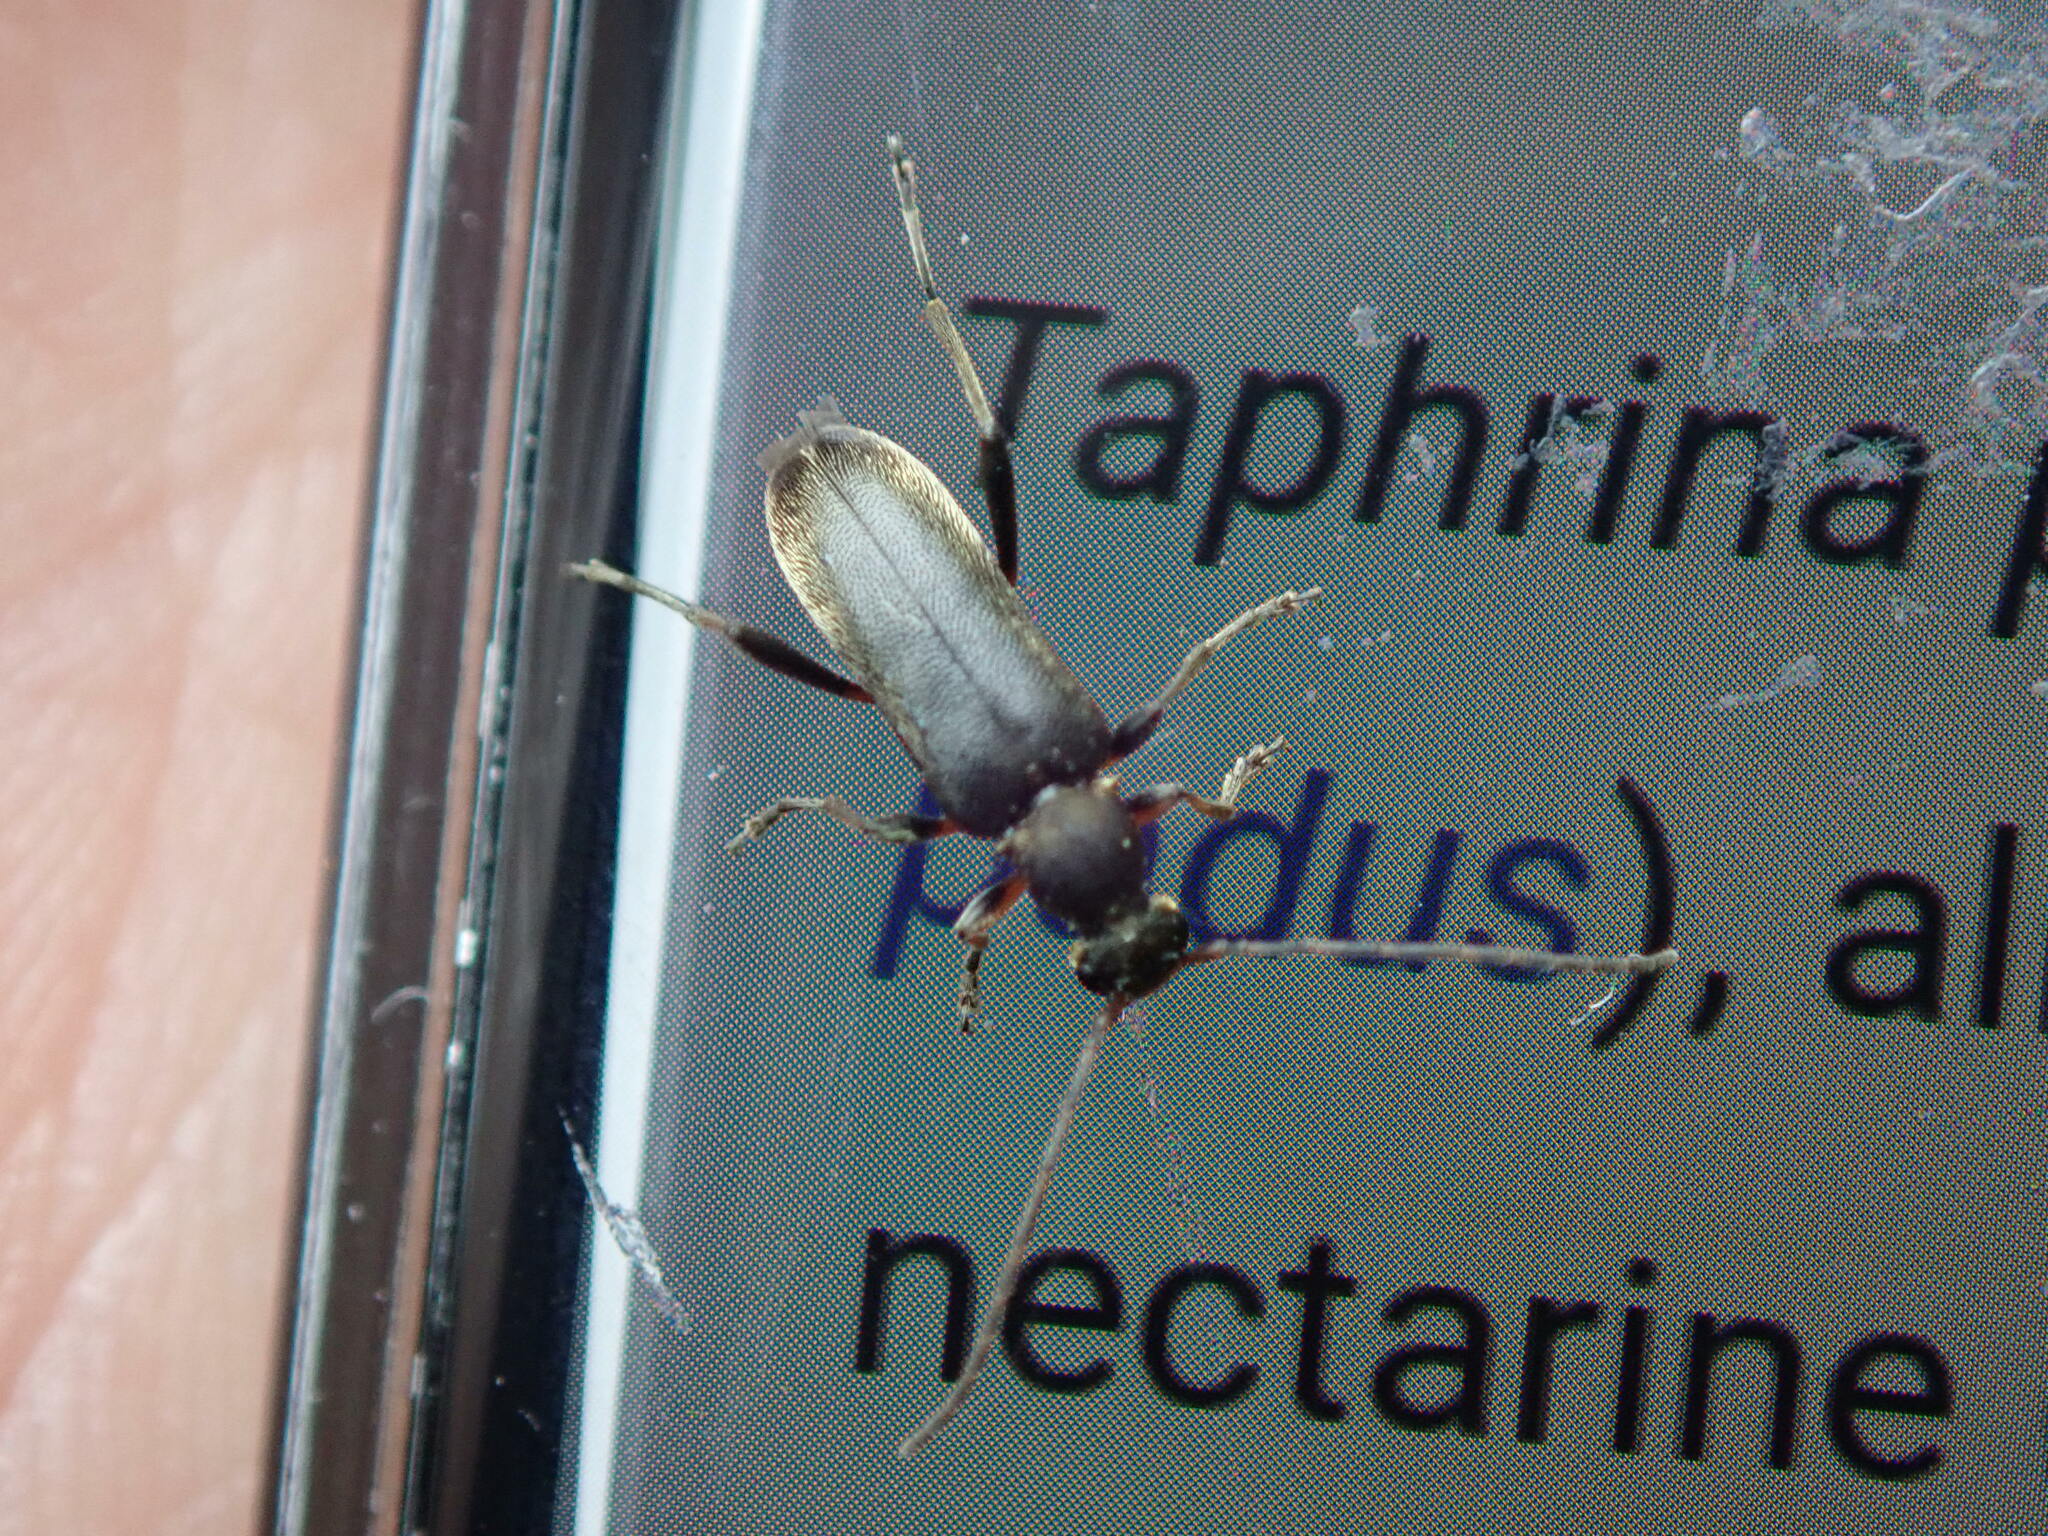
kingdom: Animalia
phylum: Arthropoda
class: Insecta
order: Coleoptera
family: Cerambycidae
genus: Grammoptera
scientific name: Grammoptera ruficornis
